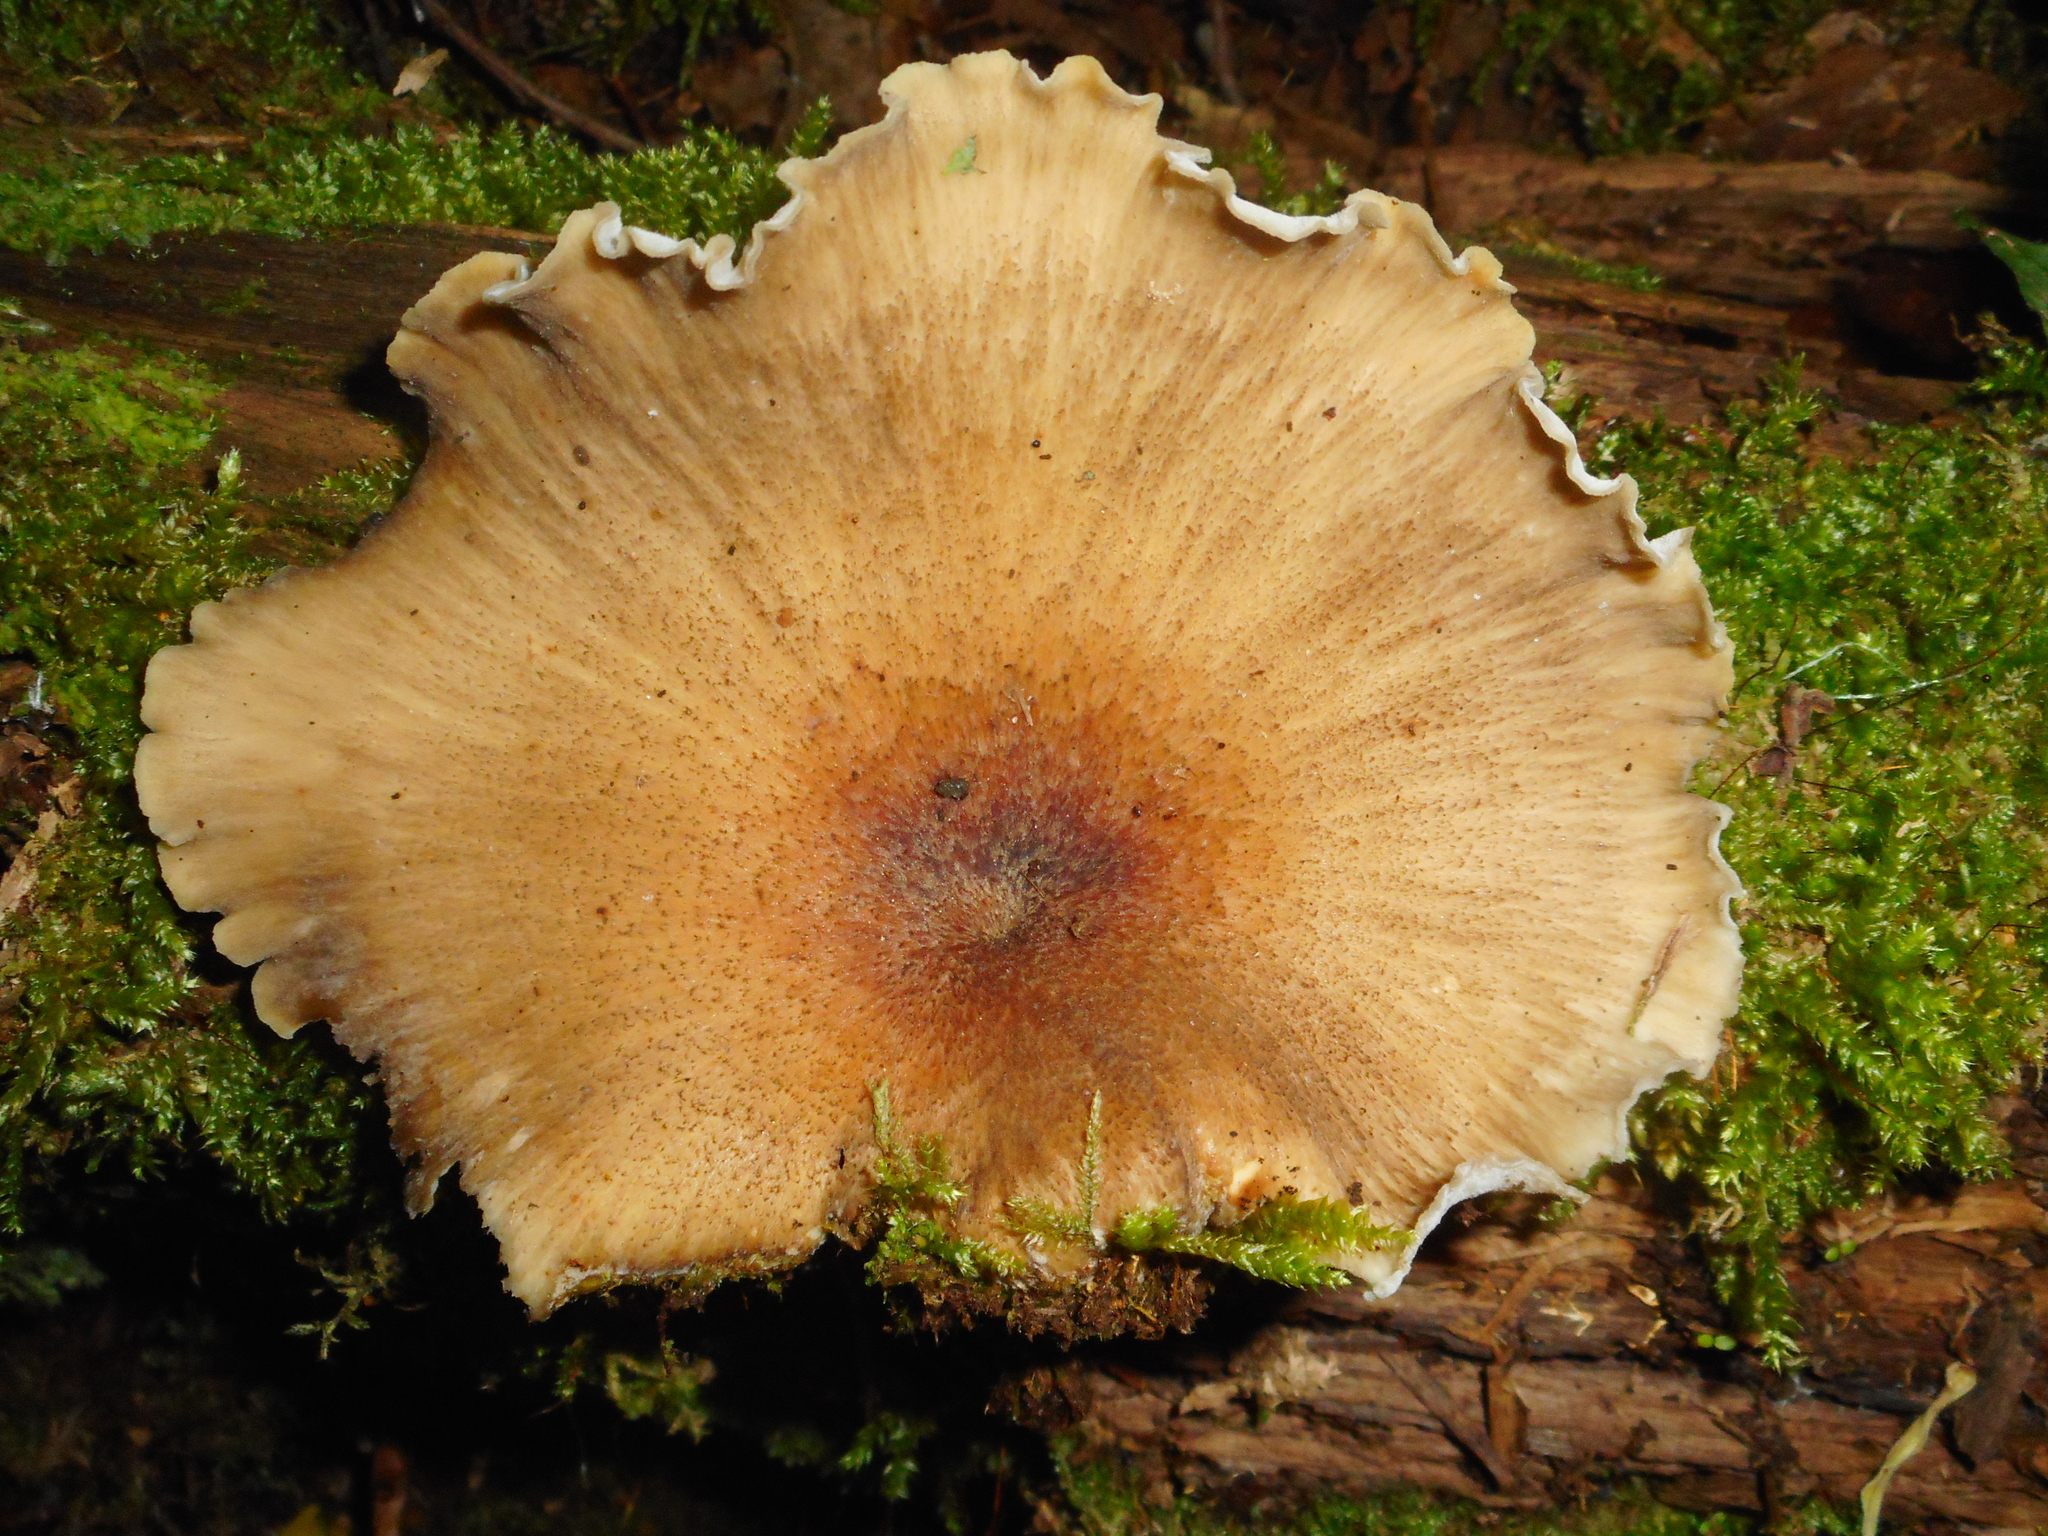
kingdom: Fungi
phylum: Basidiomycota
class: Agaricomycetes
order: Polyporales
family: Polyporaceae
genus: Cerioporus
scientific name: Cerioporus varius
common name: Elegant polypore
